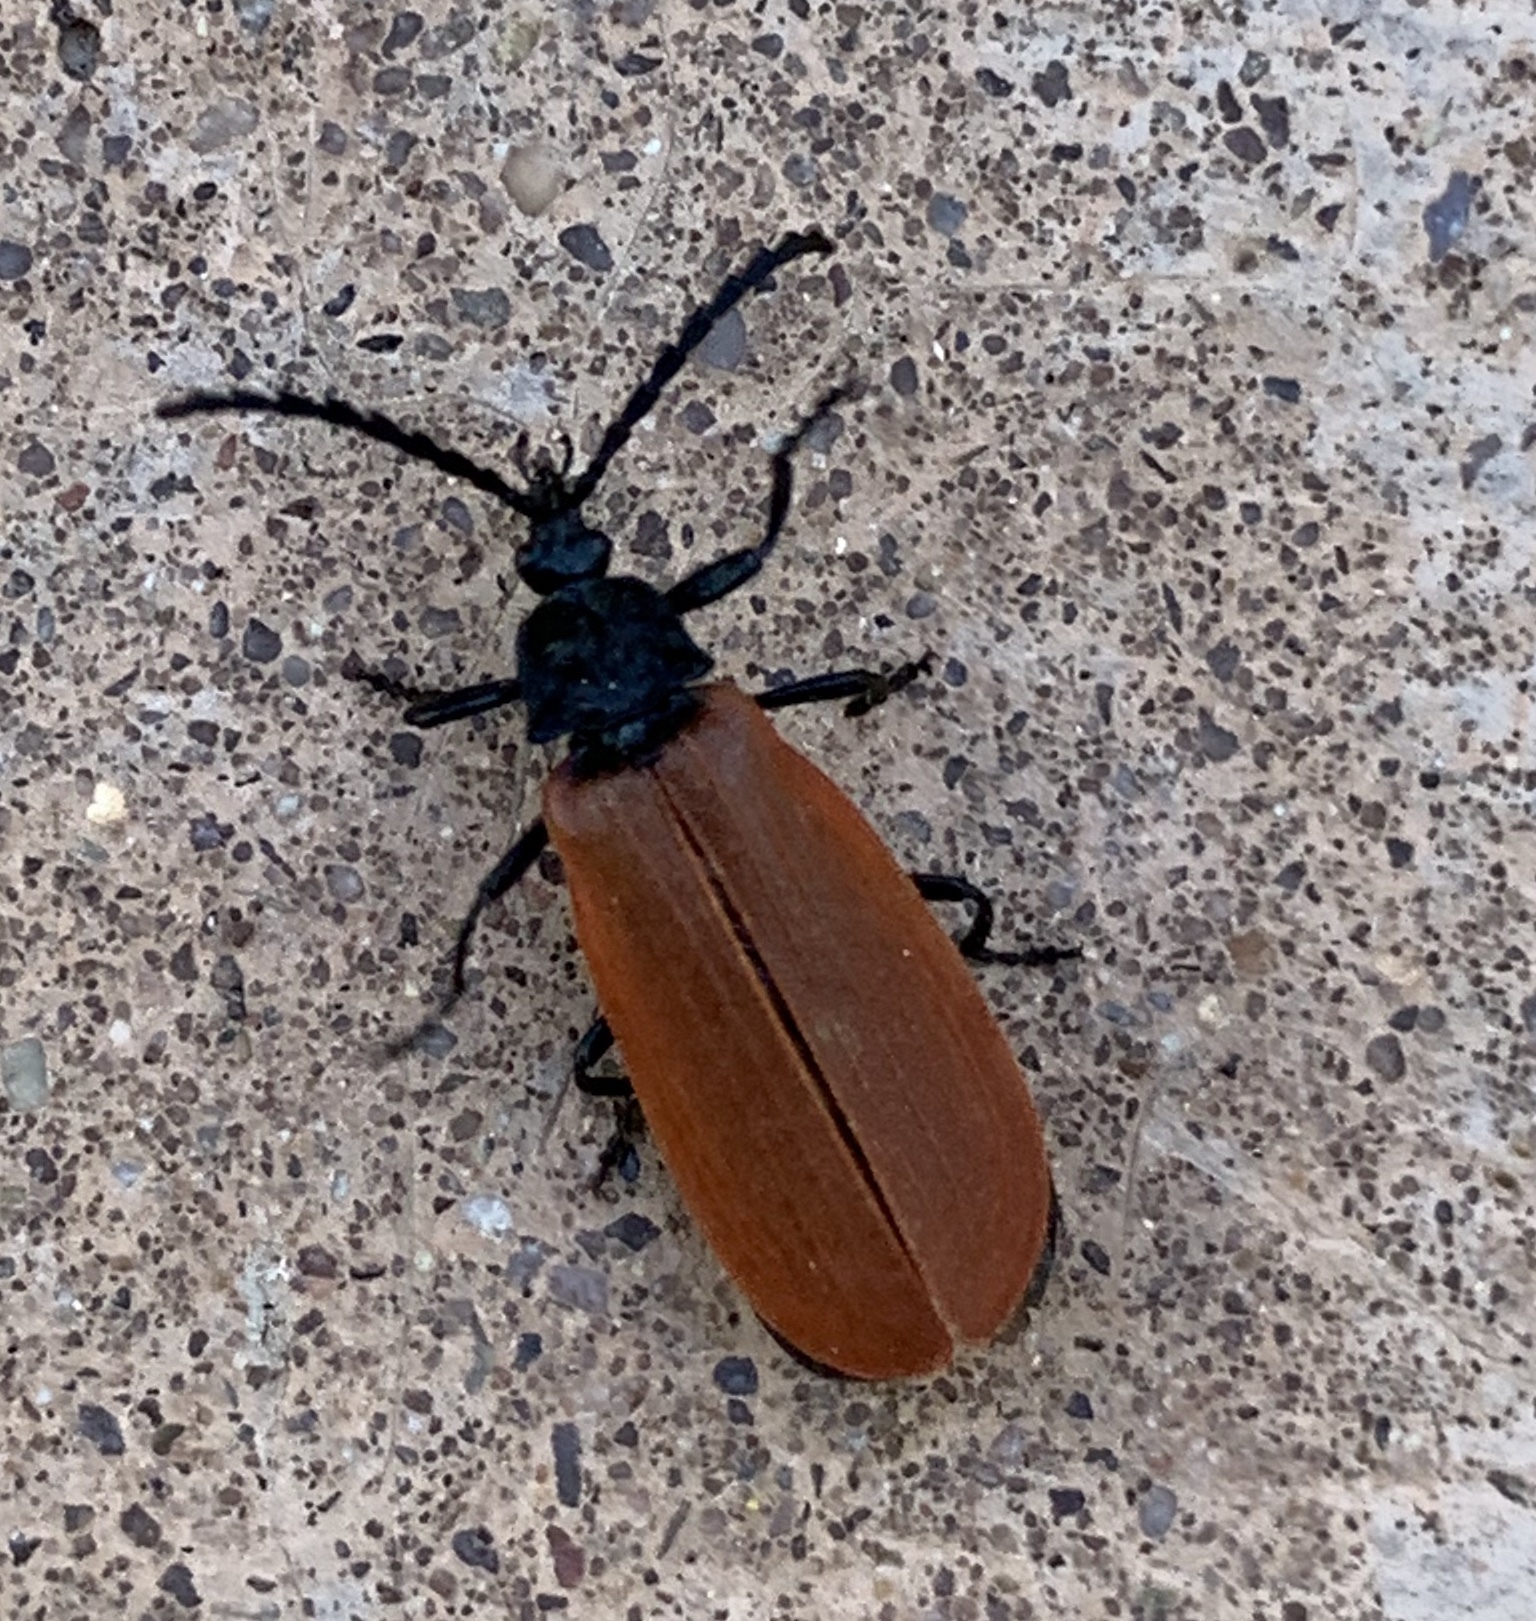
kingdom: Animalia
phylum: Arthropoda
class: Insecta
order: Coleoptera
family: Lycidae
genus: Macrolygistopterus
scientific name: Macrolygistopterus
